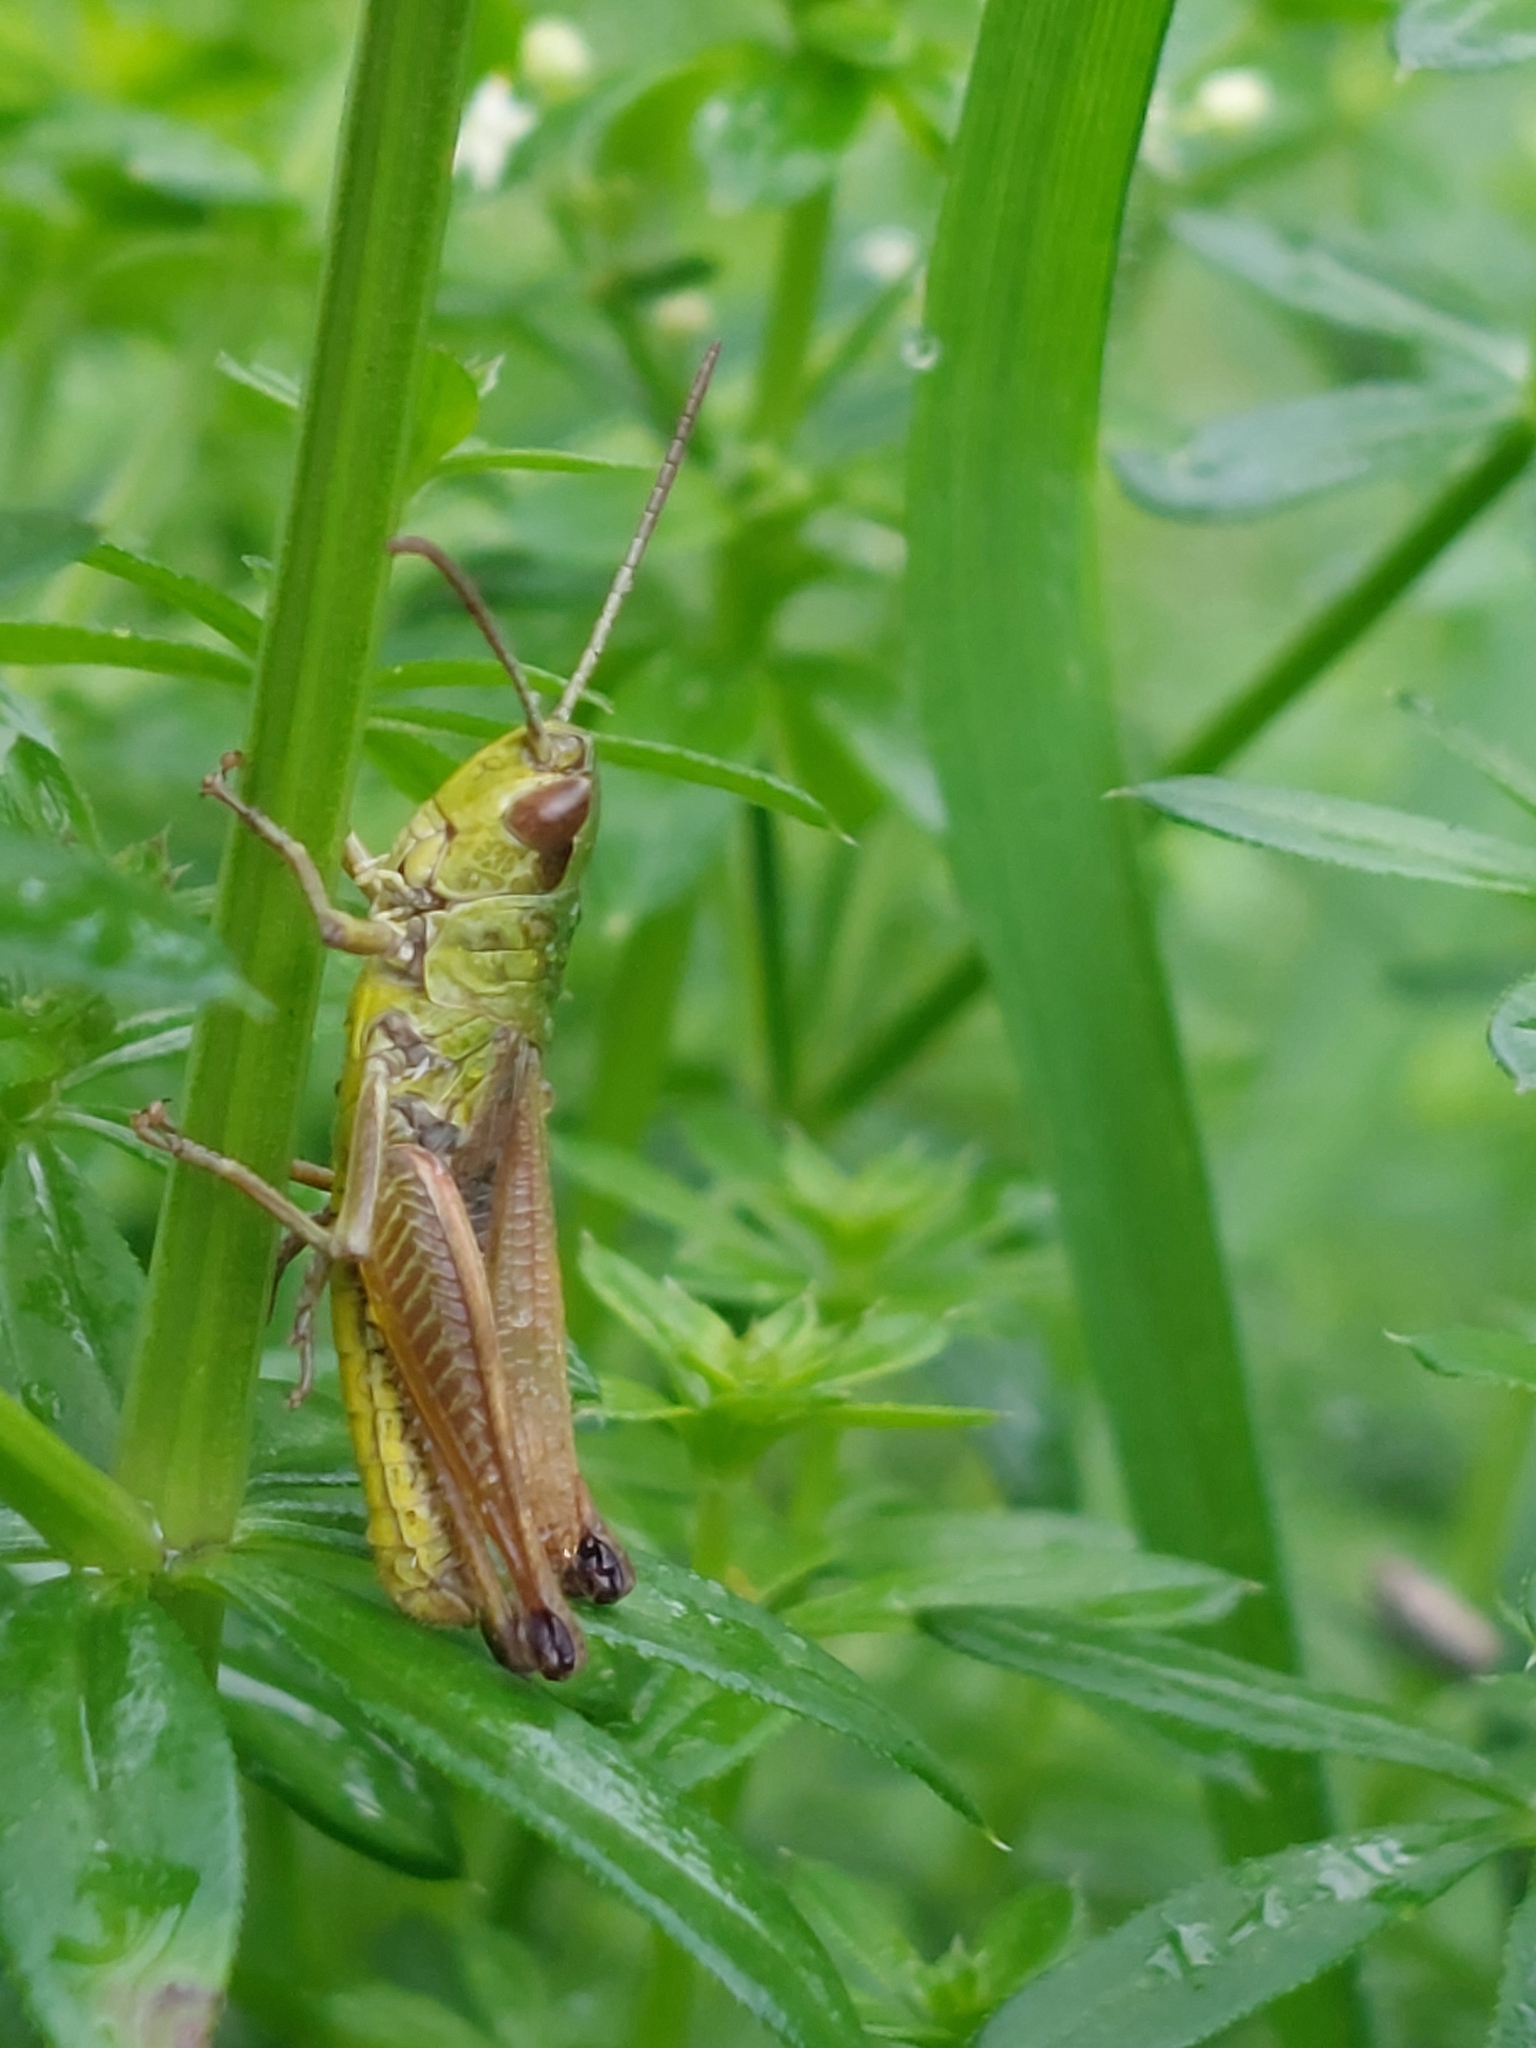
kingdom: Animalia
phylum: Arthropoda
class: Insecta
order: Orthoptera
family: Acrididae
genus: Pseudochorthippus
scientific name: Pseudochorthippus parallelus
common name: Meadow grasshopper
